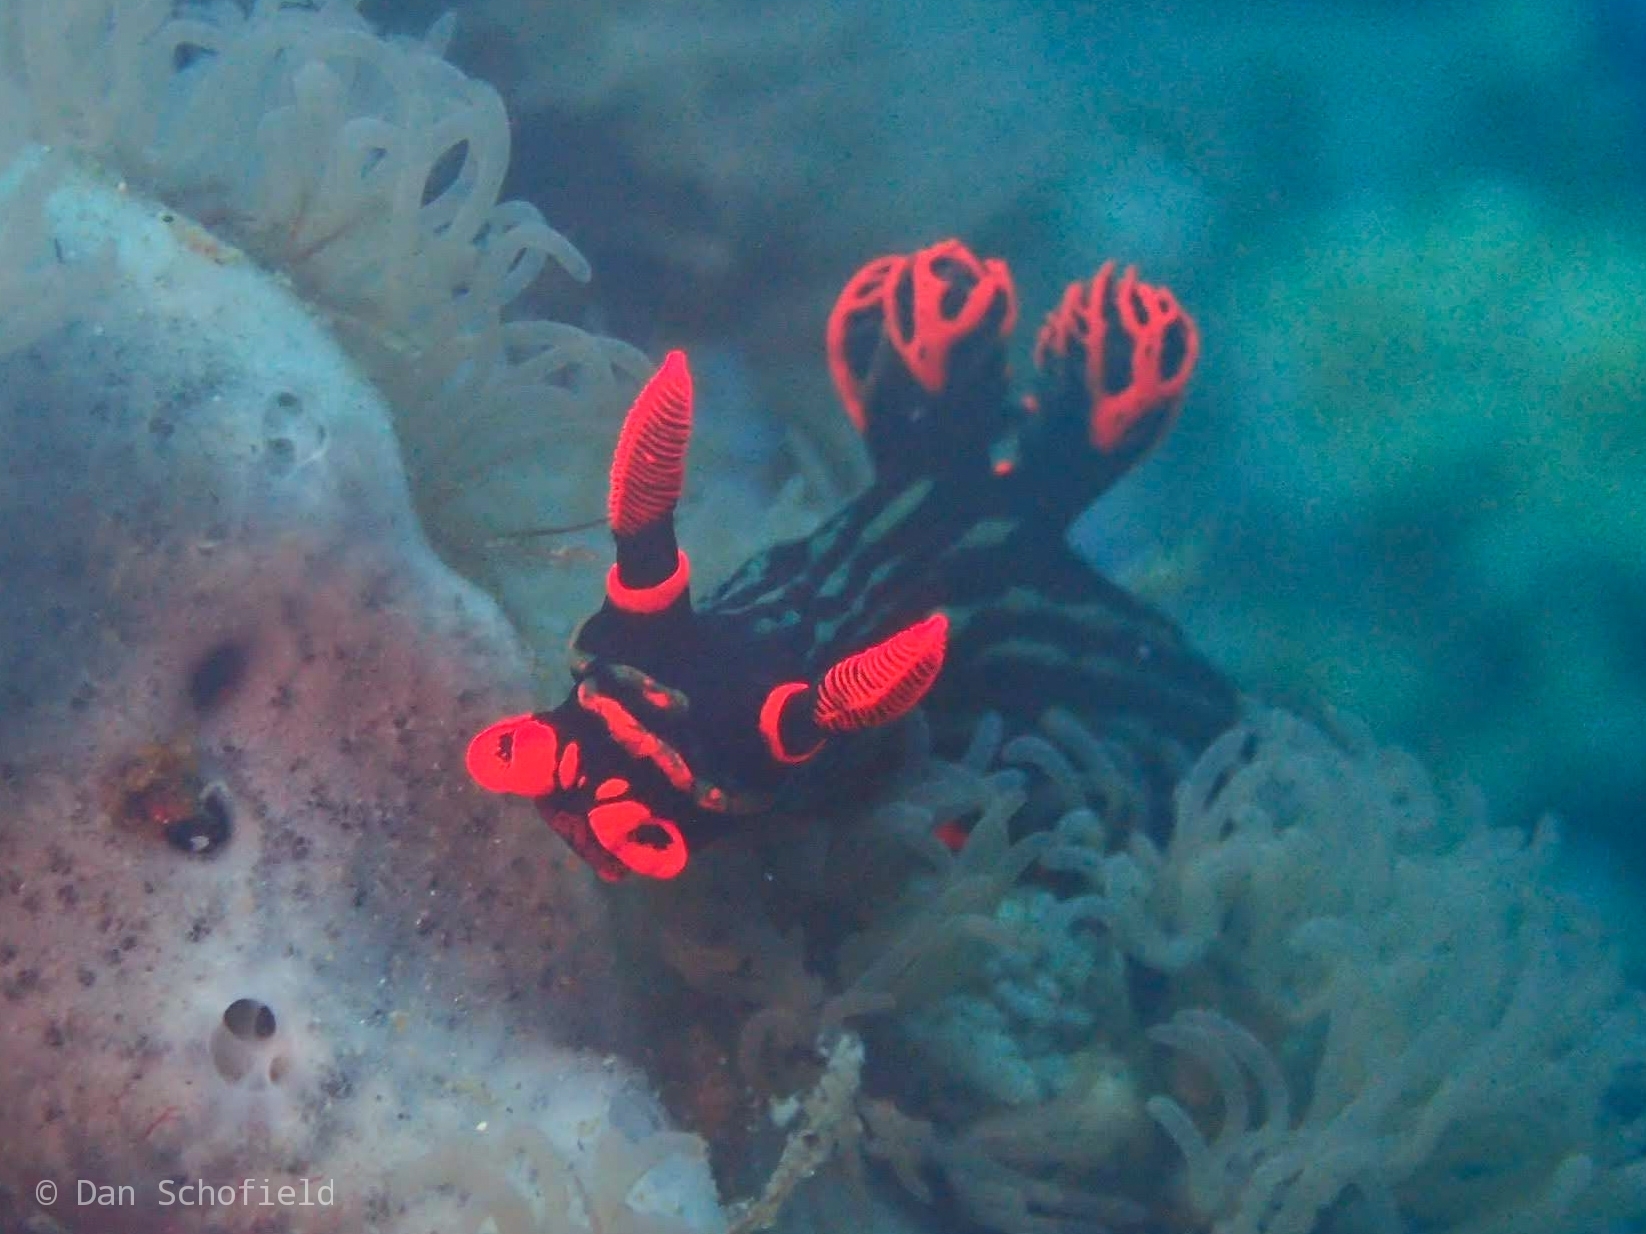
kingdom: Animalia
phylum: Mollusca
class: Gastropoda
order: Nudibranchia
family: Polyceridae
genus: Nembrotha
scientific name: Nembrotha kubaryana
